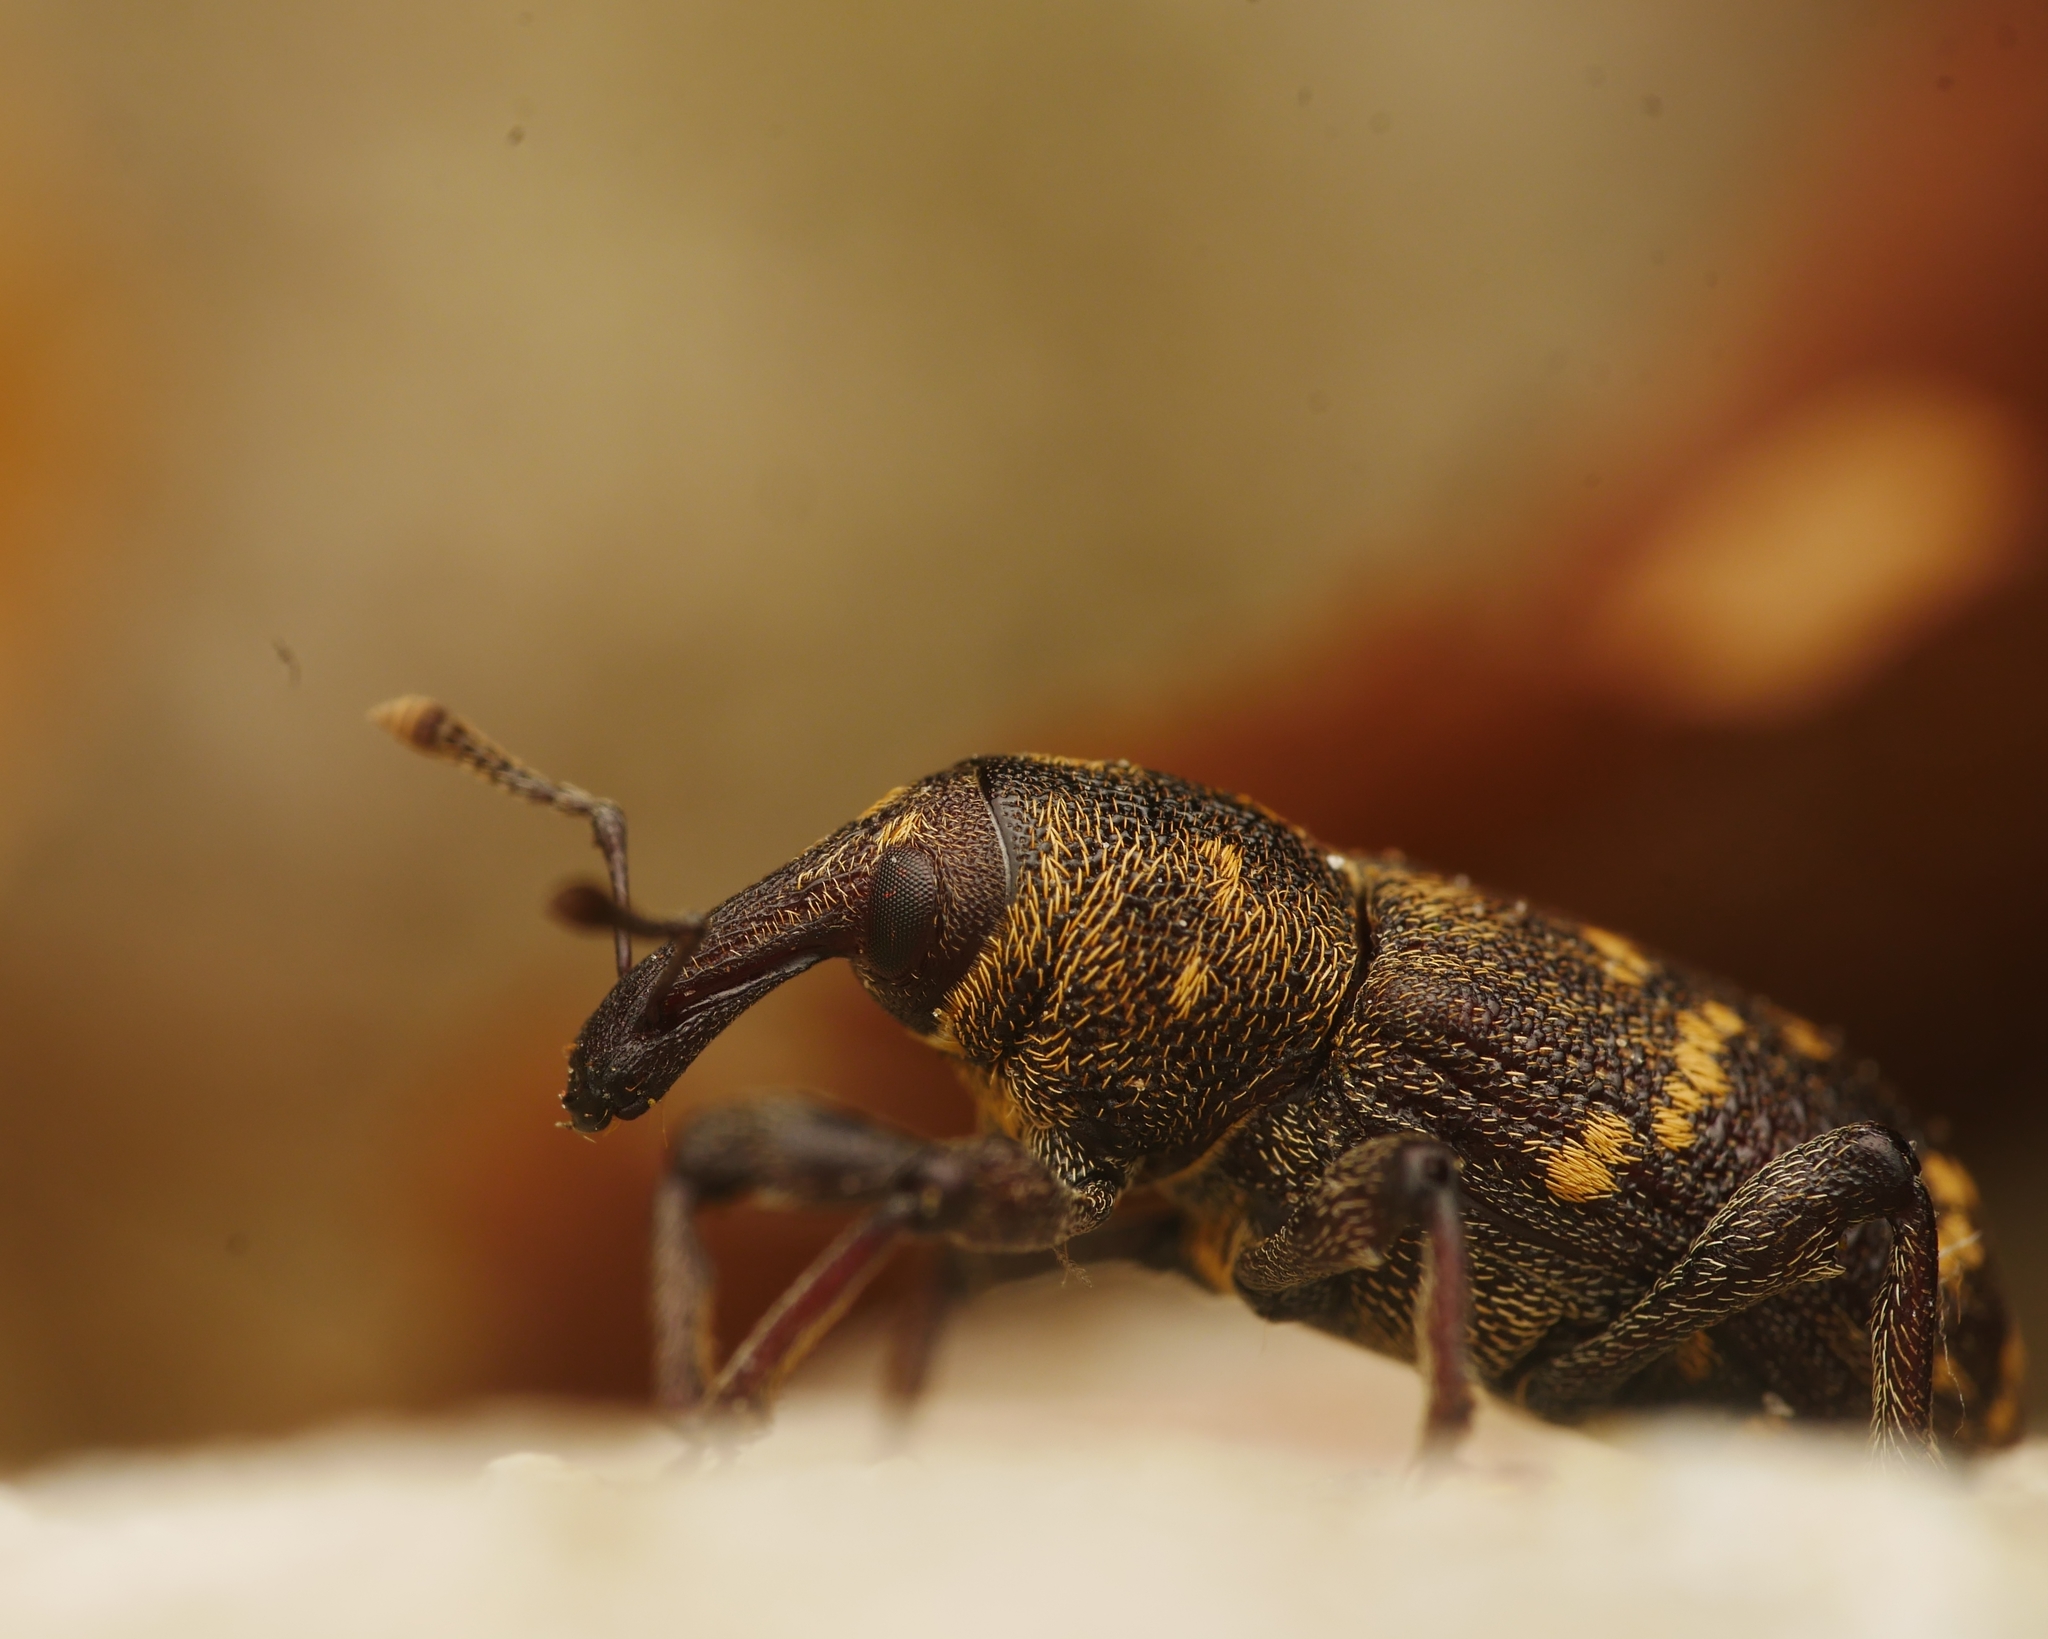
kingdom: Animalia
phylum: Arthropoda
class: Insecta
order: Coleoptera
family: Curculionidae
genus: Hylobius
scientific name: Hylobius abietis
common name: Large pine weevil
